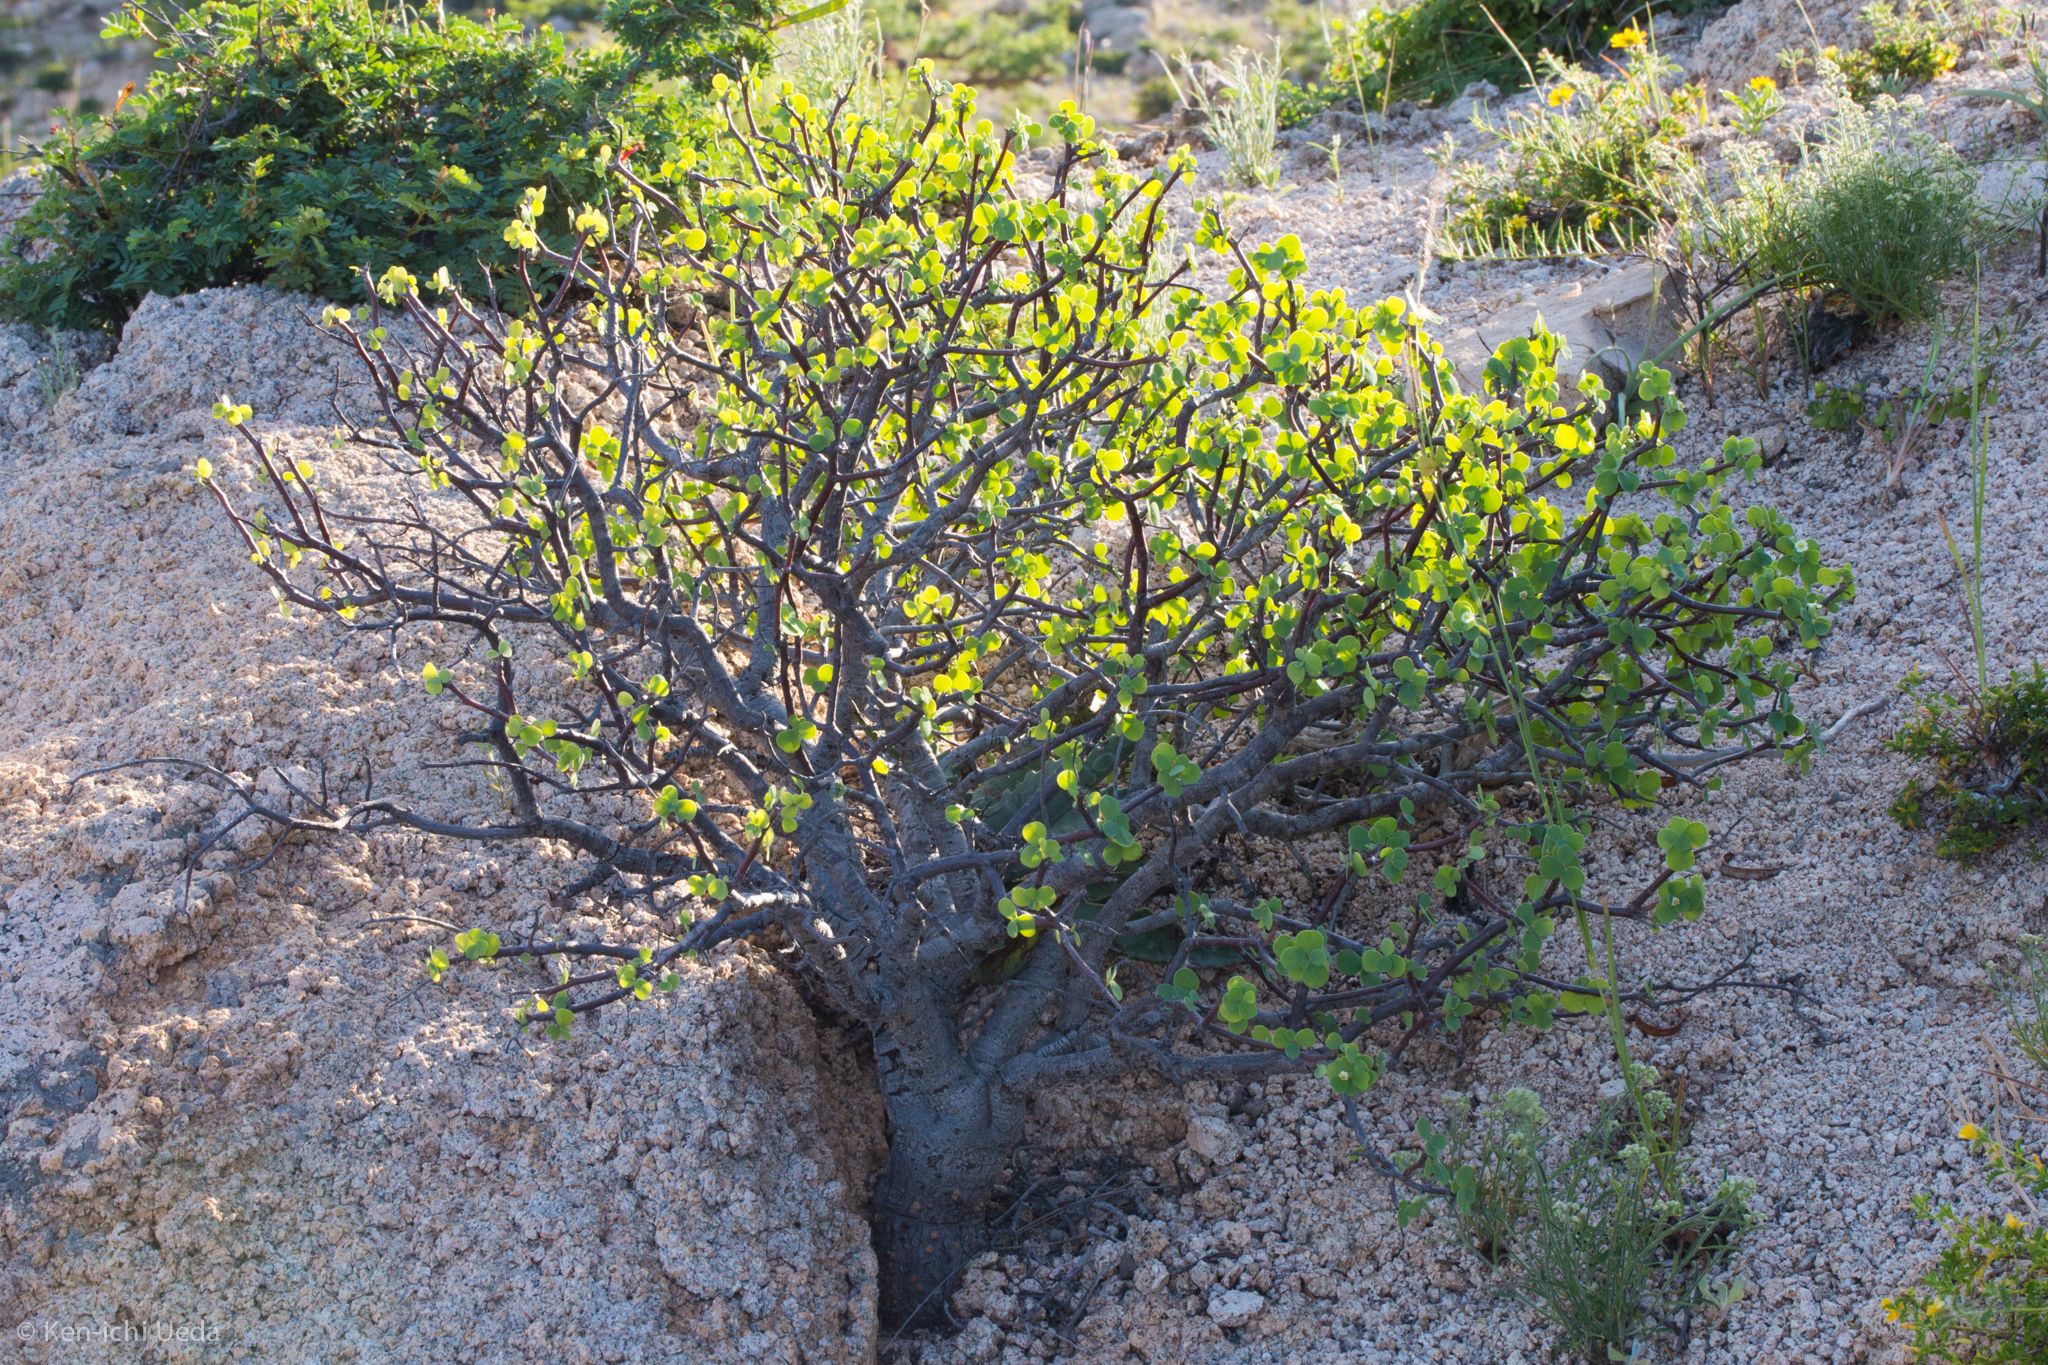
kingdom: Plantae
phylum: Tracheophyta
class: Magnoliopsida
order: Malpighiales
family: Euphorbiaceae
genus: Euphorbia
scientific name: Euphorbia hindsiana
